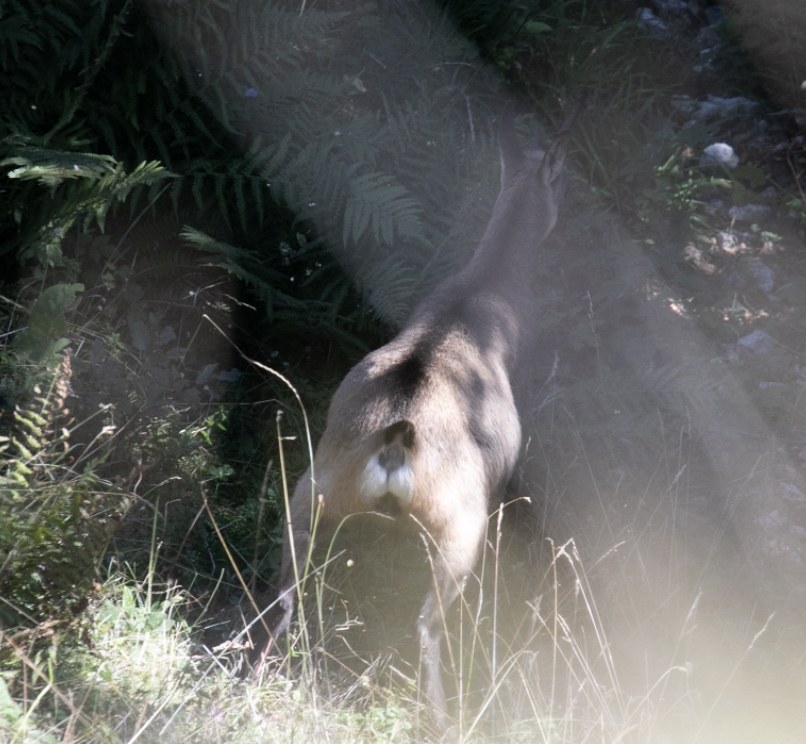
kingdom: Animalia
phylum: Chordata
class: Mammalia
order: Artiodactyla
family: Bovidae
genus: Rupicapra
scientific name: Rupicapra rupicapra
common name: Chamois
